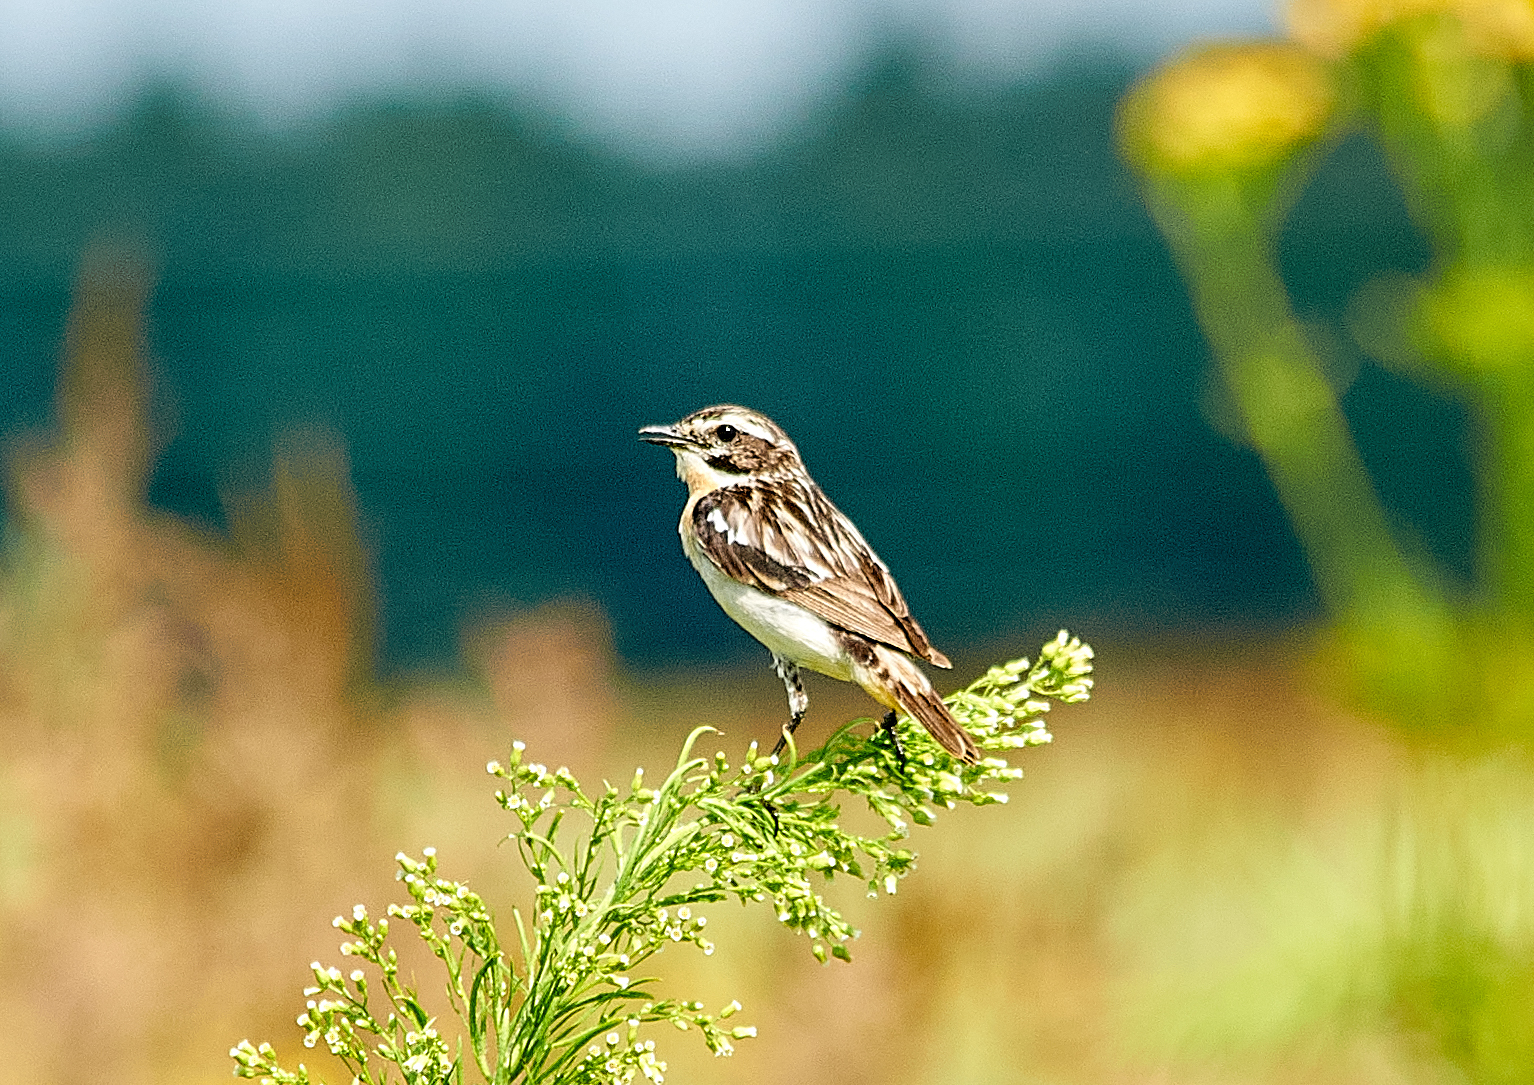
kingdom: Animalia
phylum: Chordata
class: Aves
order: Passeriformes
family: Muscicapidae
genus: Saxicola
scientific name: Saxicola rubetra
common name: Whinchat
